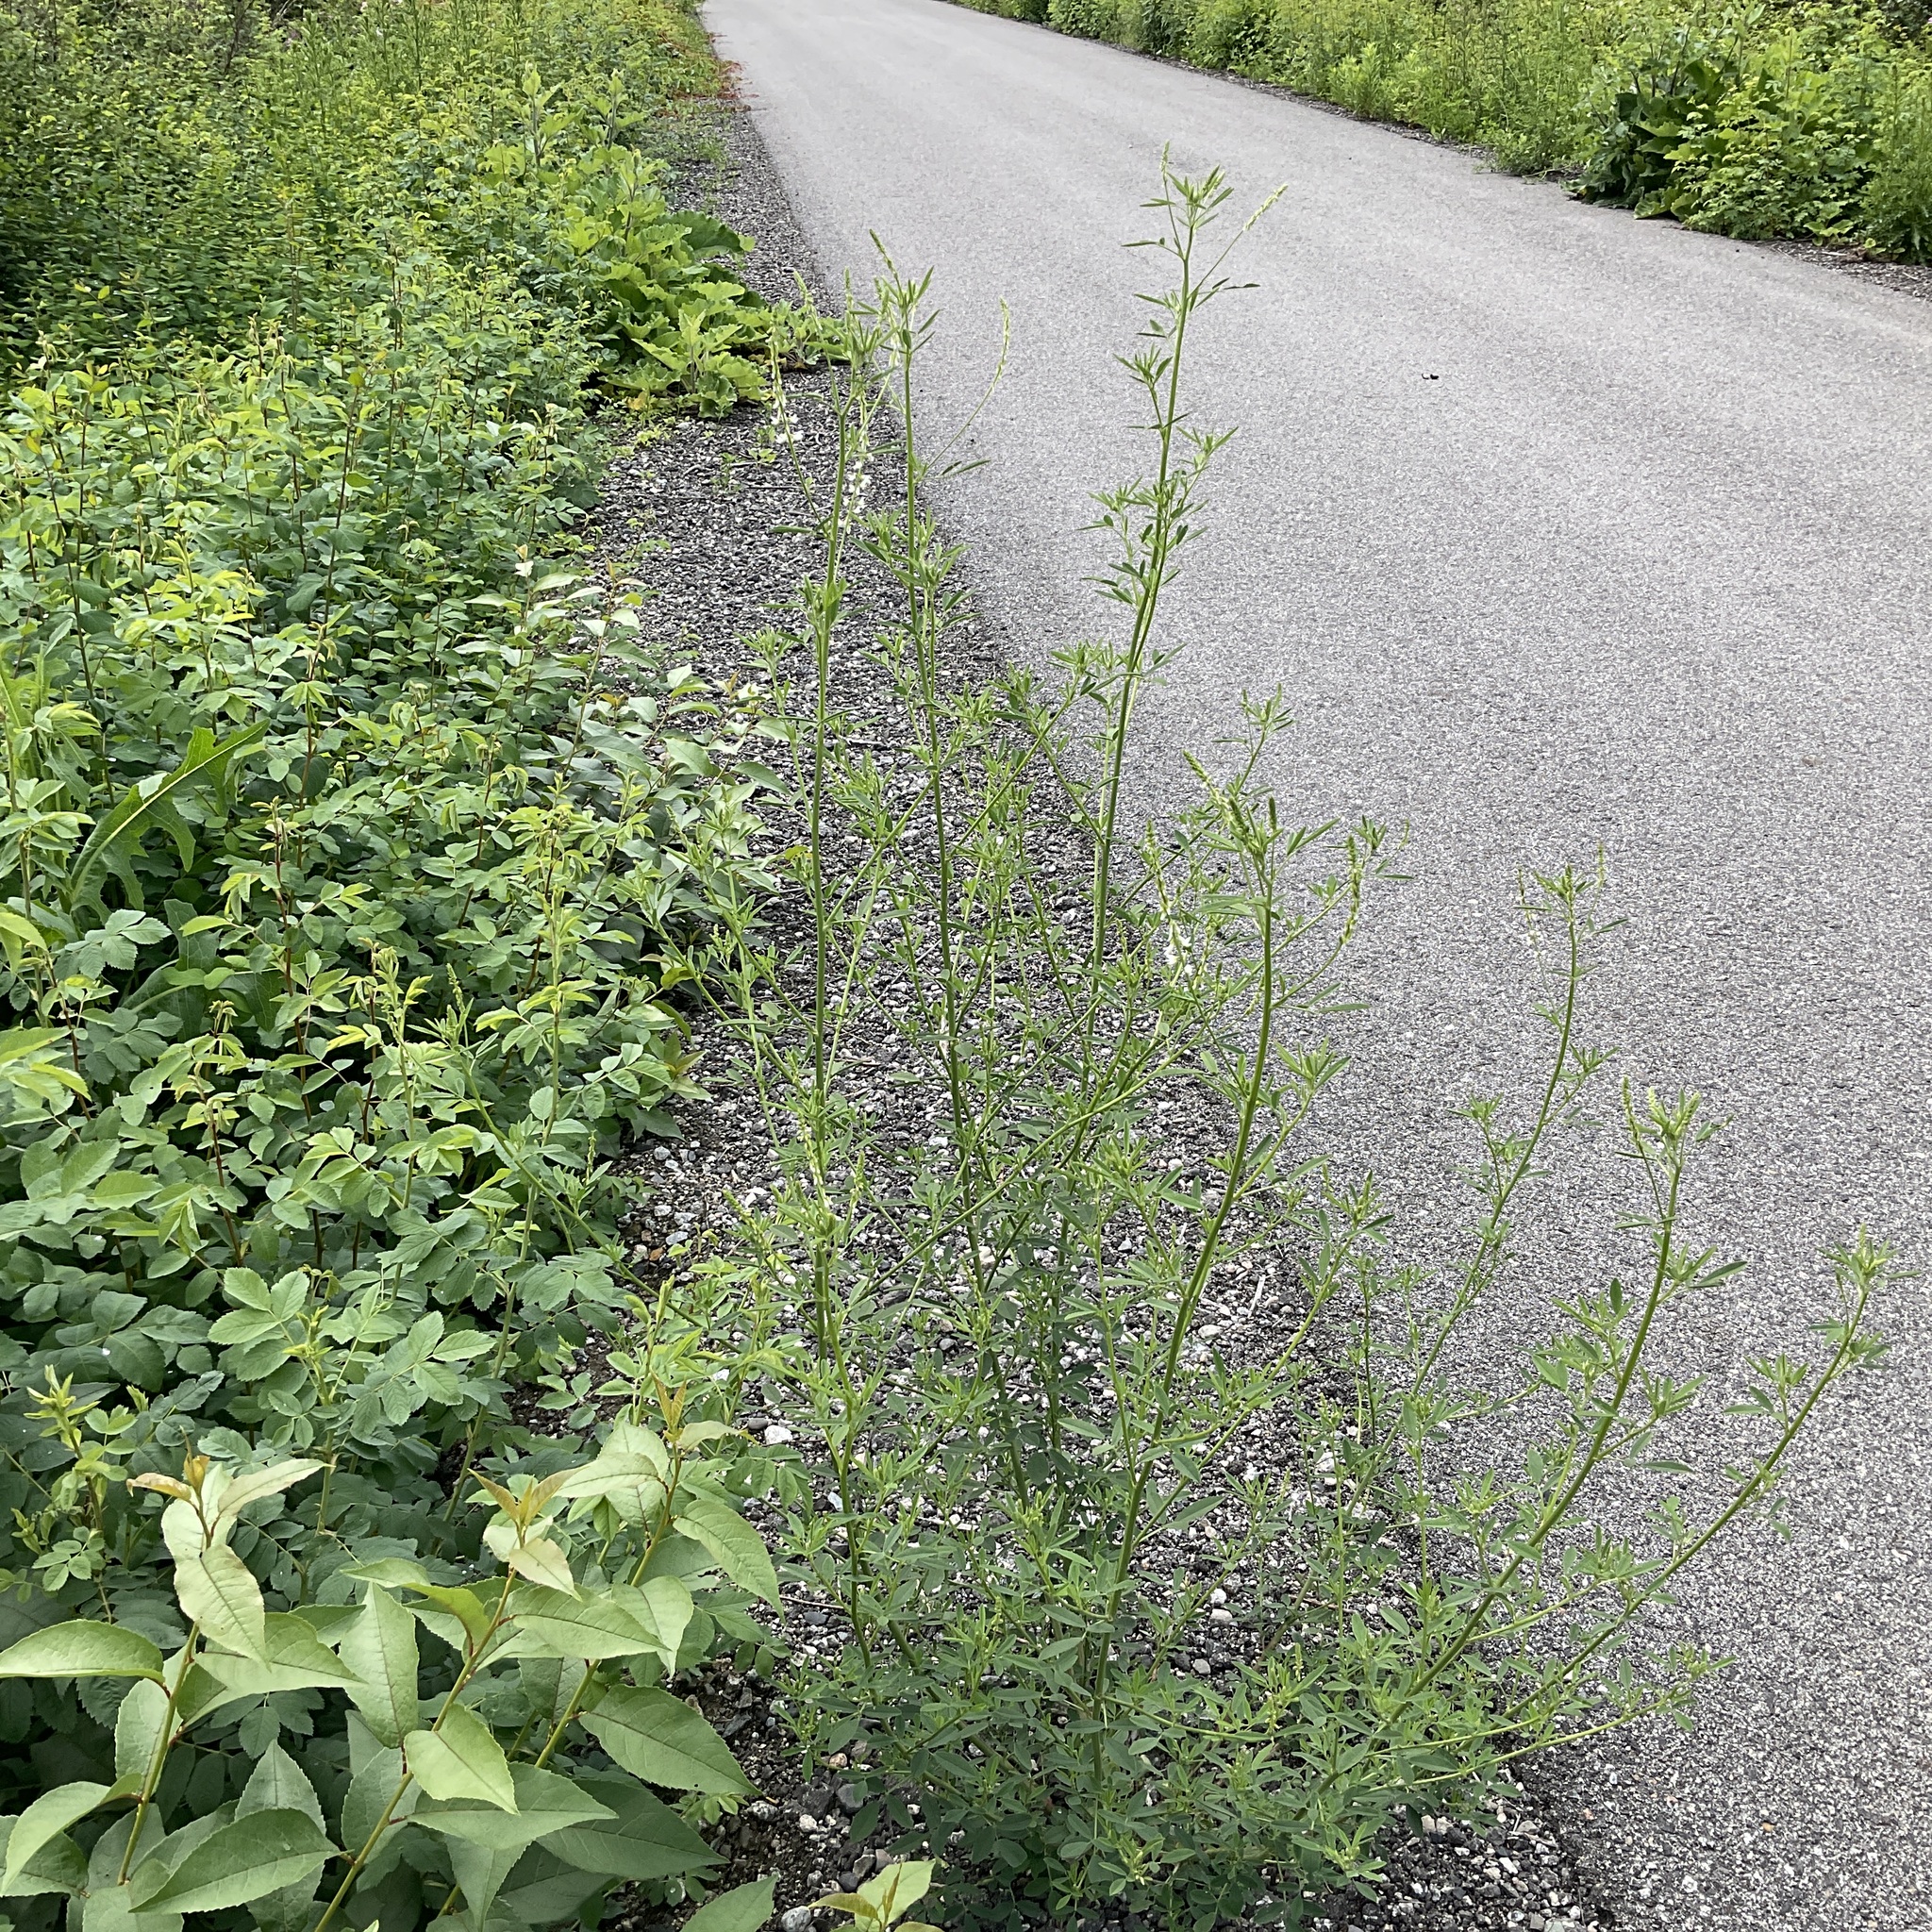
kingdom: Plantae
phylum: Tracheophyta
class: Magnoliopsida
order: Fabales
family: Fabaceae
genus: Melilotus
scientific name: Melilotus albus
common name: White melilot
